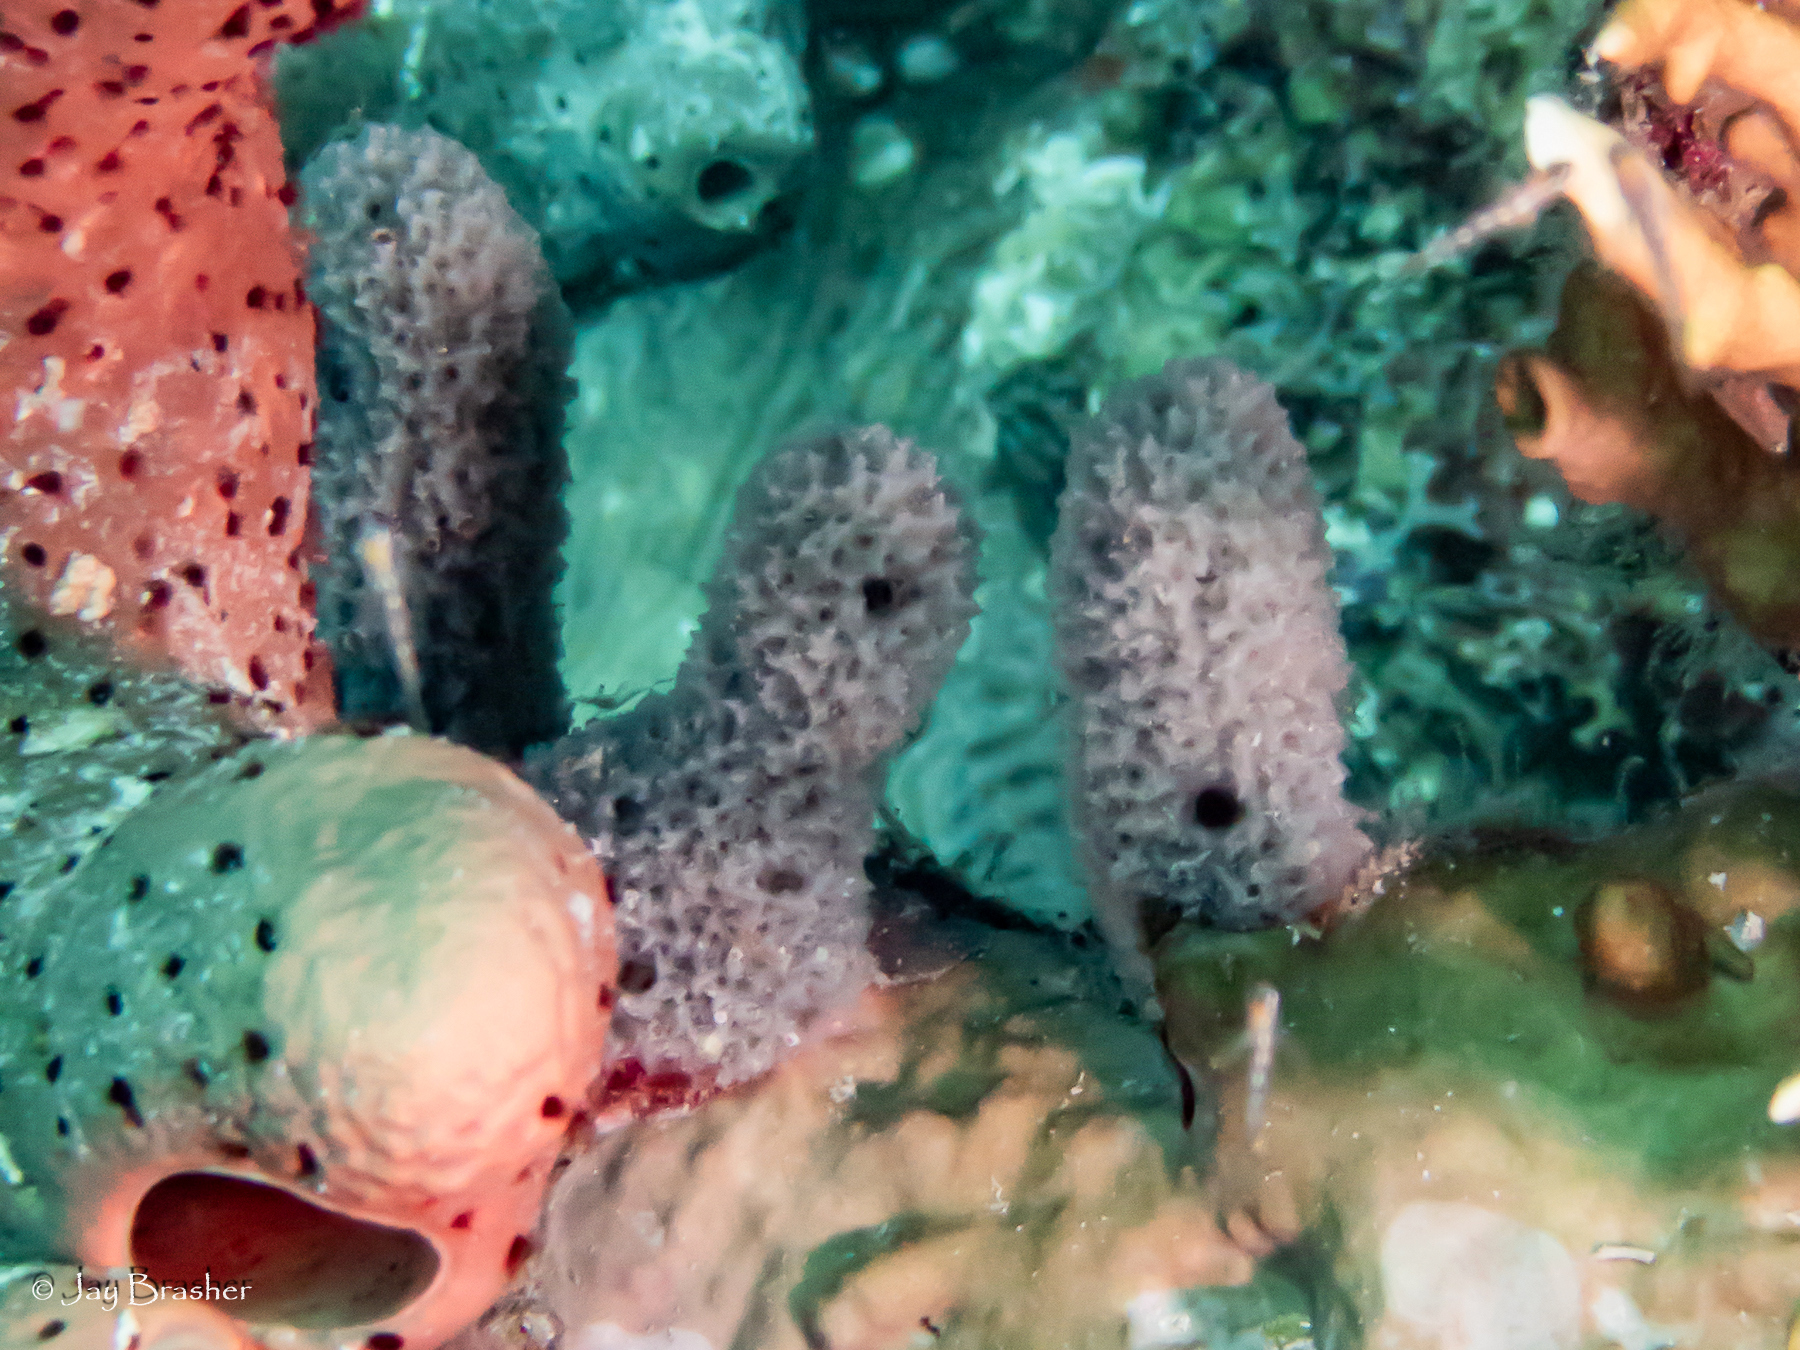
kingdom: Animalia
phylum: Porifera
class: Demospongiae
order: Haplosclerida
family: Niphatidae
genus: Niphates
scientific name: Niphates erecta
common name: Lavender rope sponge
